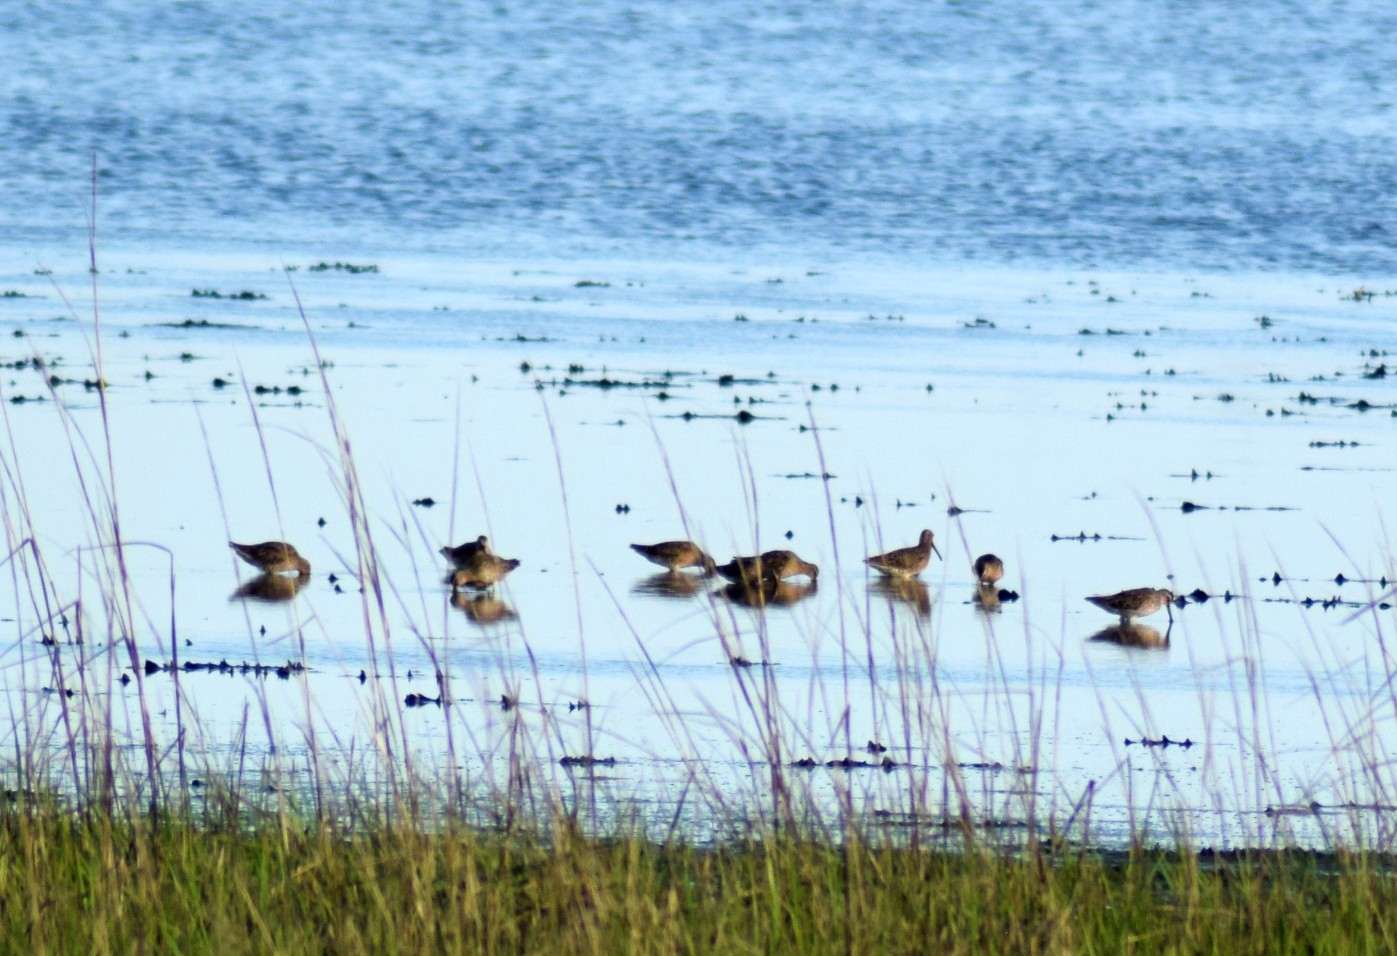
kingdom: Animalia
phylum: Chordata
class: Aves
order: Charadriiformes
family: Scolopacidae
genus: Limnodromus
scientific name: Limnodromus
